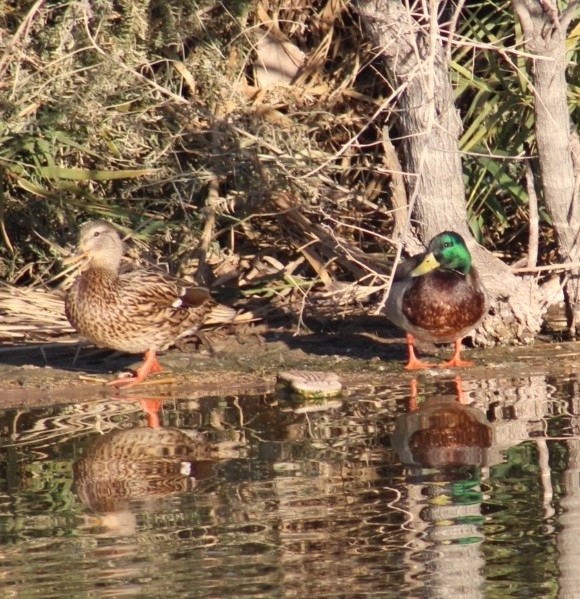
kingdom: Animalia
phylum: Chordata
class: Aves
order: Anseriformes
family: Anatidae
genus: Anas
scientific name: Anas platyrhynchos
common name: Mallard
